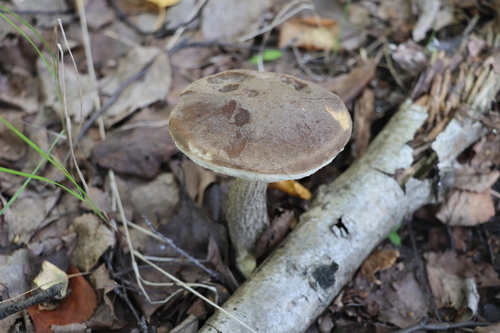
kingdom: Fungi
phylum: Basidiomycota
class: Agaricomycetes
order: Boletales
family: Boletaceae
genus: Leccinum
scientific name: Leccinum scabrum
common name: Blushing bolete
